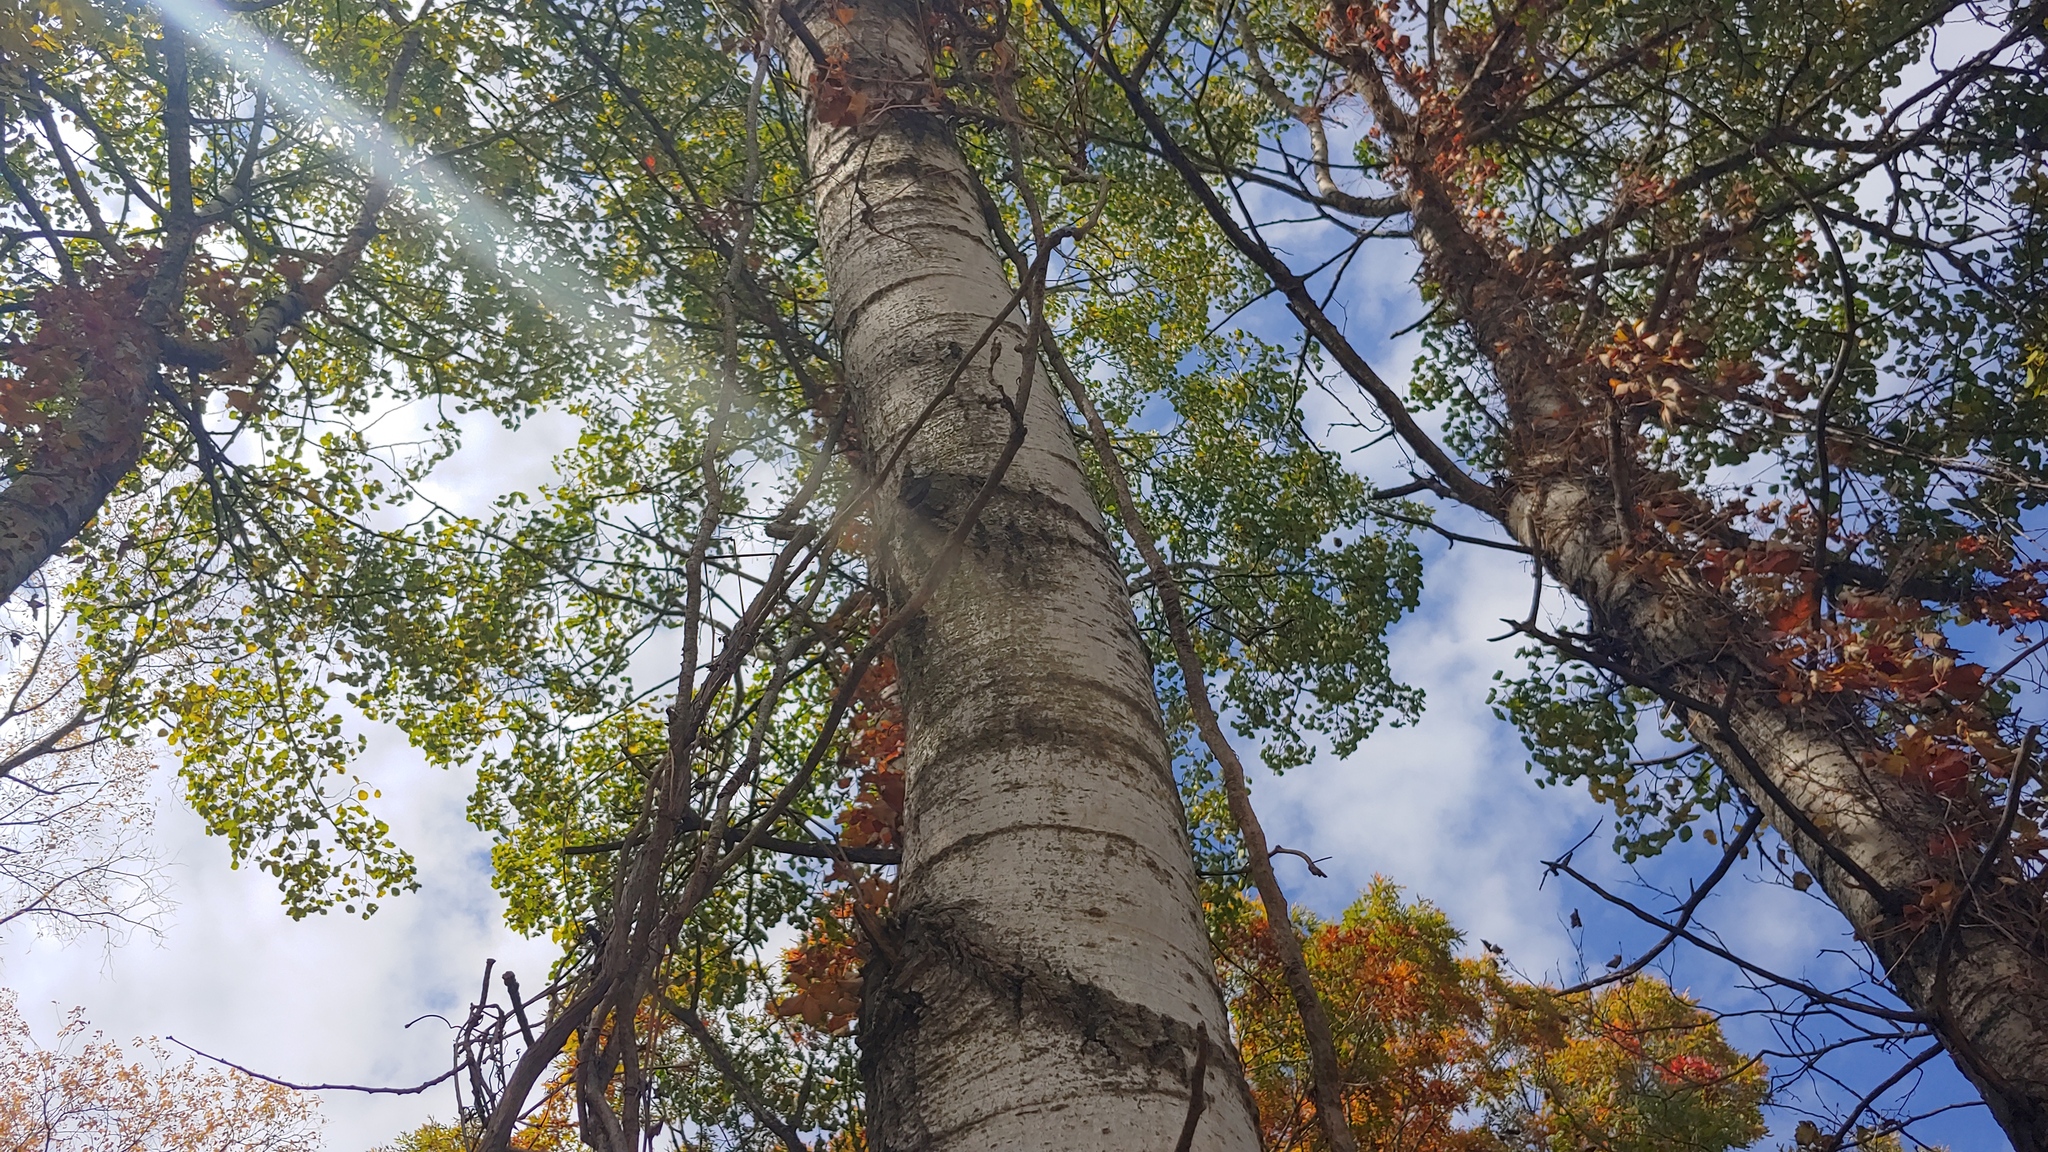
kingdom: Plantae
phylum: Tracheophyta
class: Magnoliopsida
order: Malpighiales
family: Salicaceae
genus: Populus
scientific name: Populus tremuloides
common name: Quaking aspen
